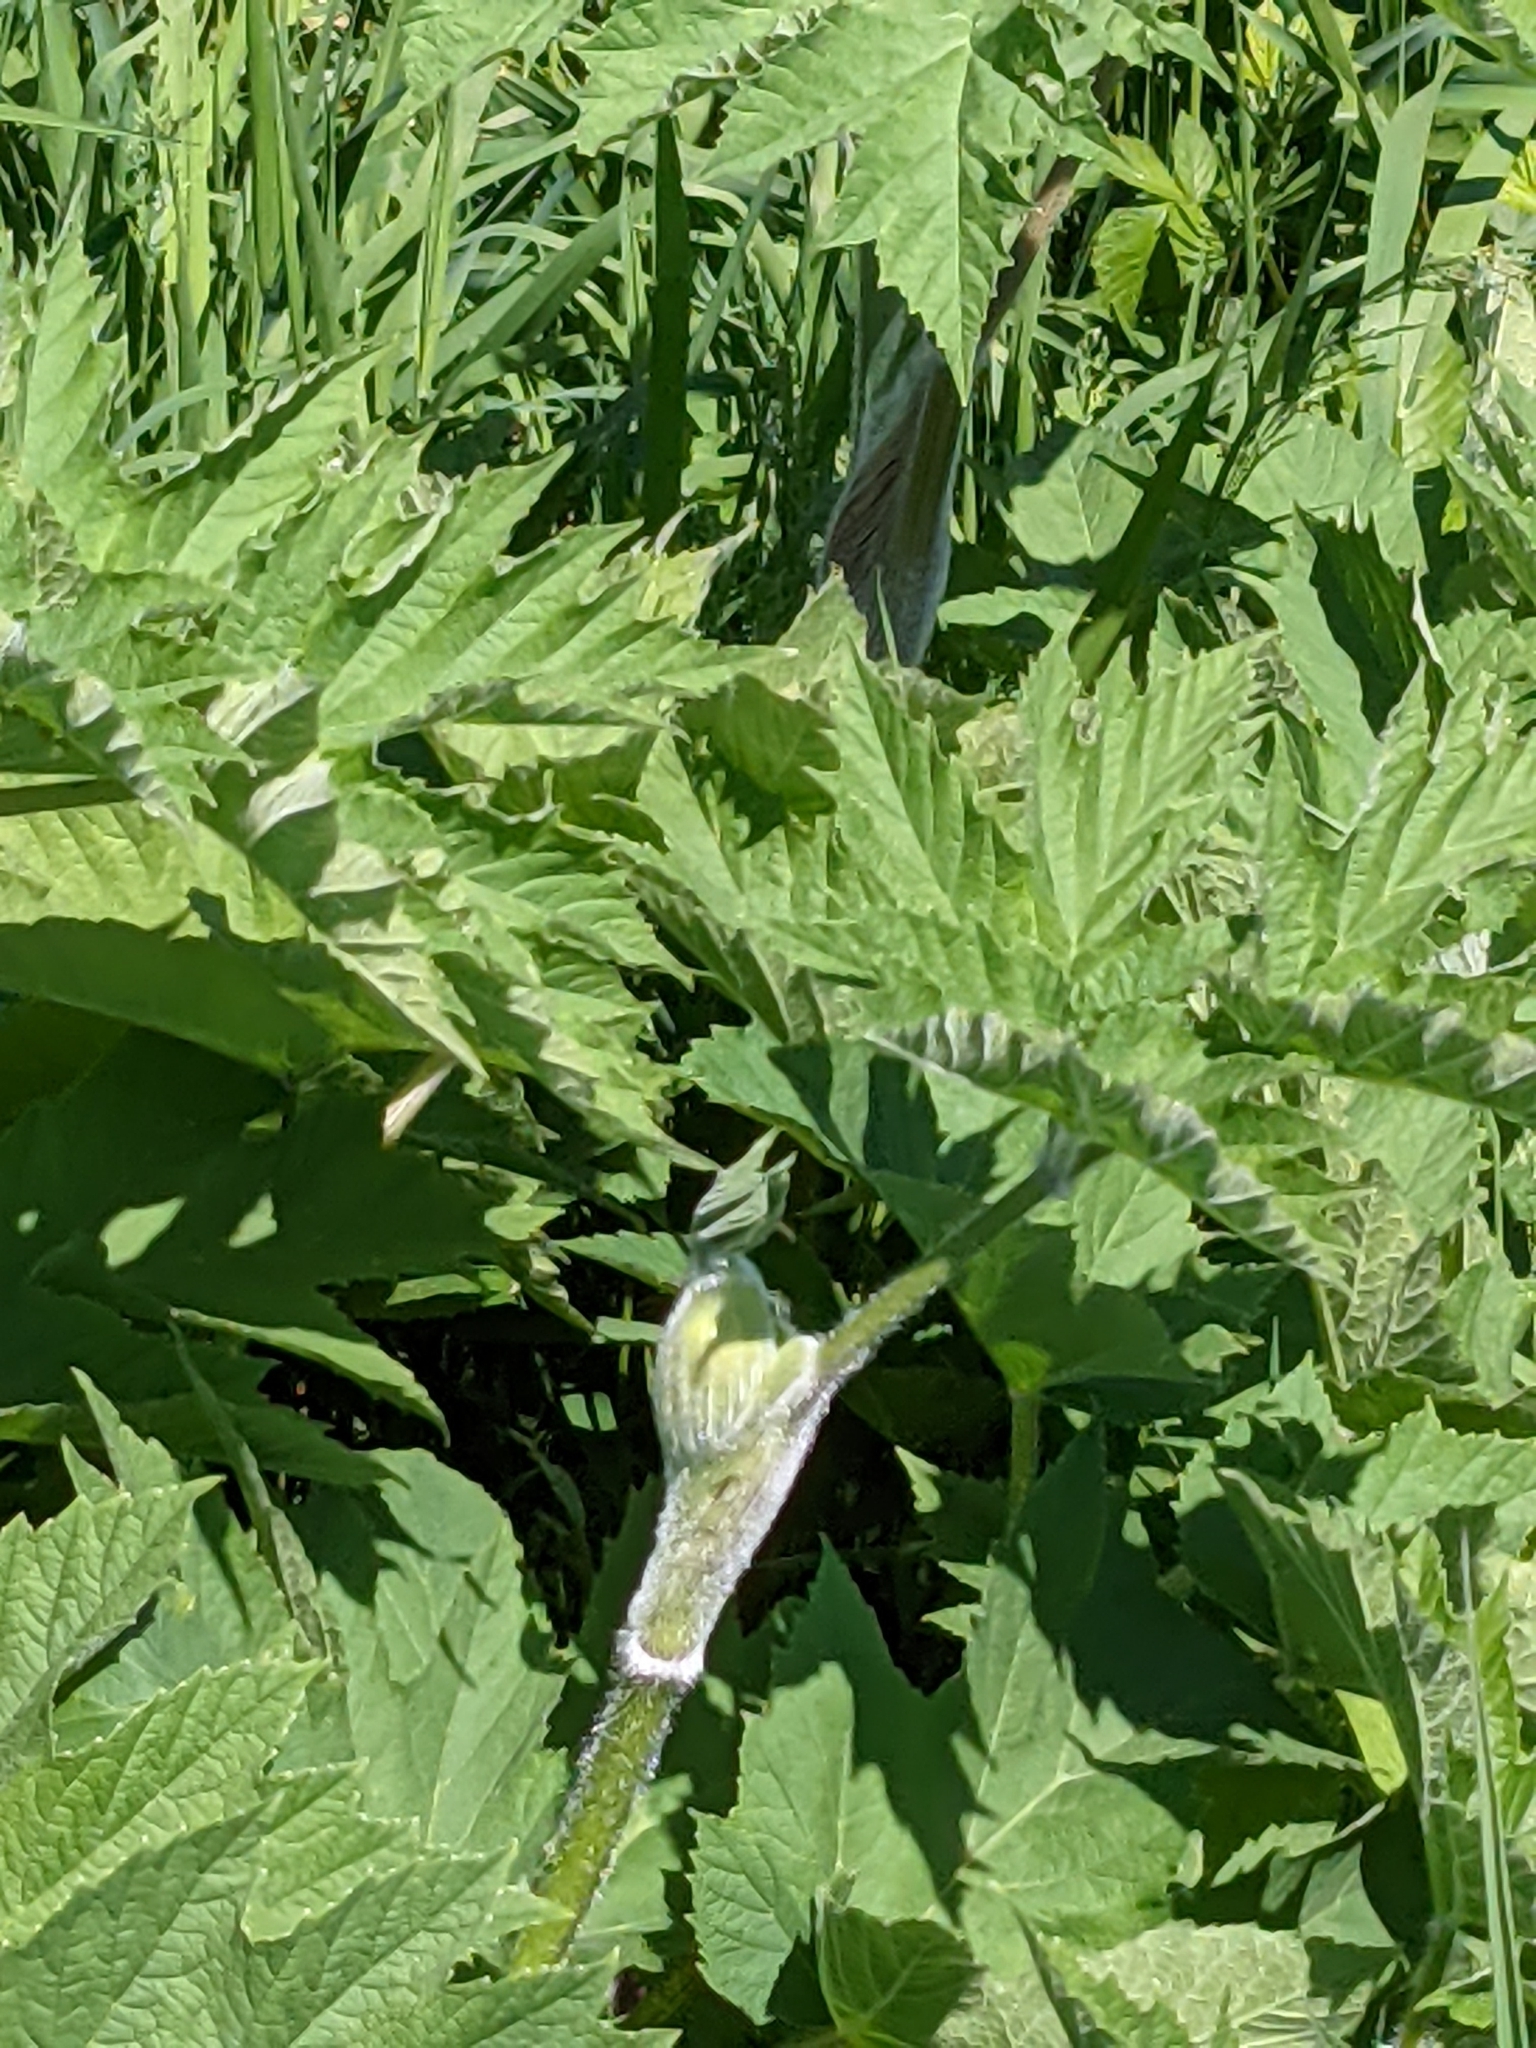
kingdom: Plantae
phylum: Tracheophyta
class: Magnoliopsida
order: Apiales
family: Apiaceae
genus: Heracleum
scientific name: Heracleum maximum
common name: American cow parsnip
